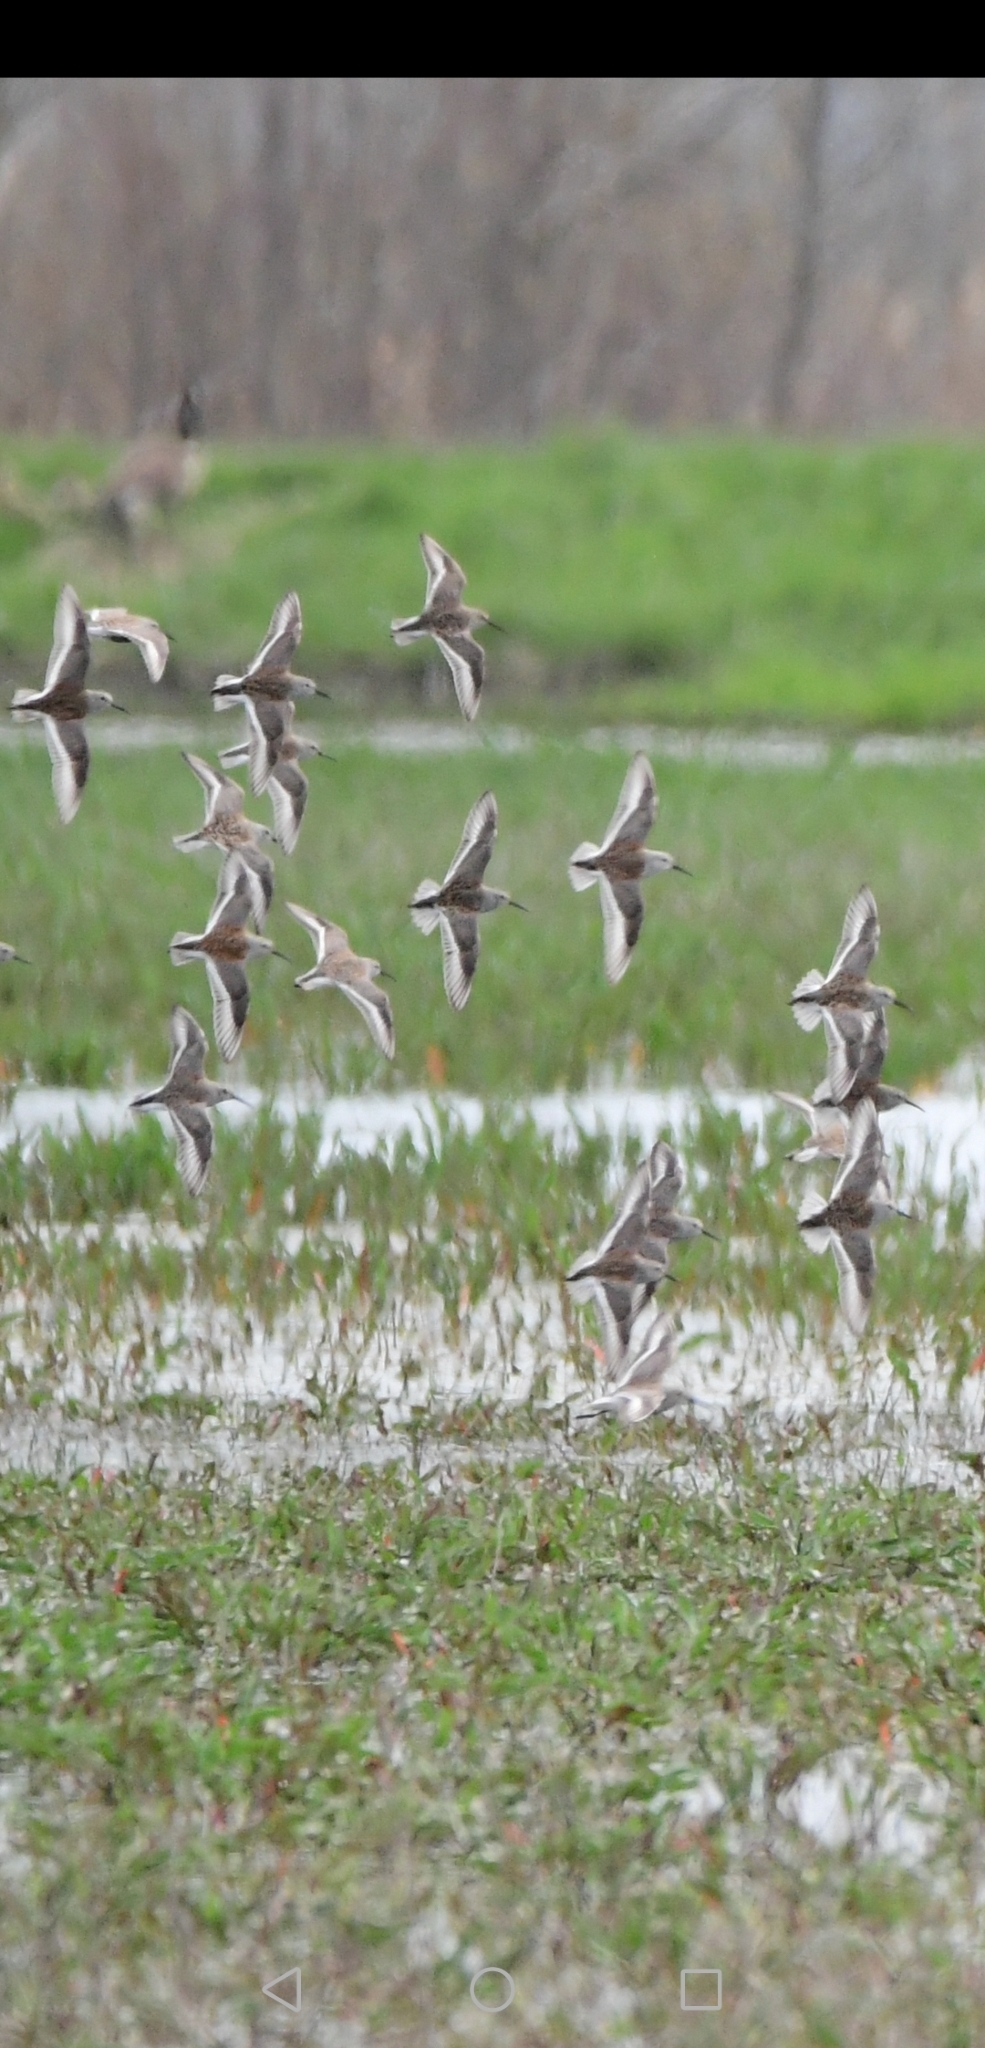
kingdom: Animalia
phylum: Chordata
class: Aves
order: Charadriiformes
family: Scolopacidae
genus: Calidris
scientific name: Calidris alpina
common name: Dunlin
